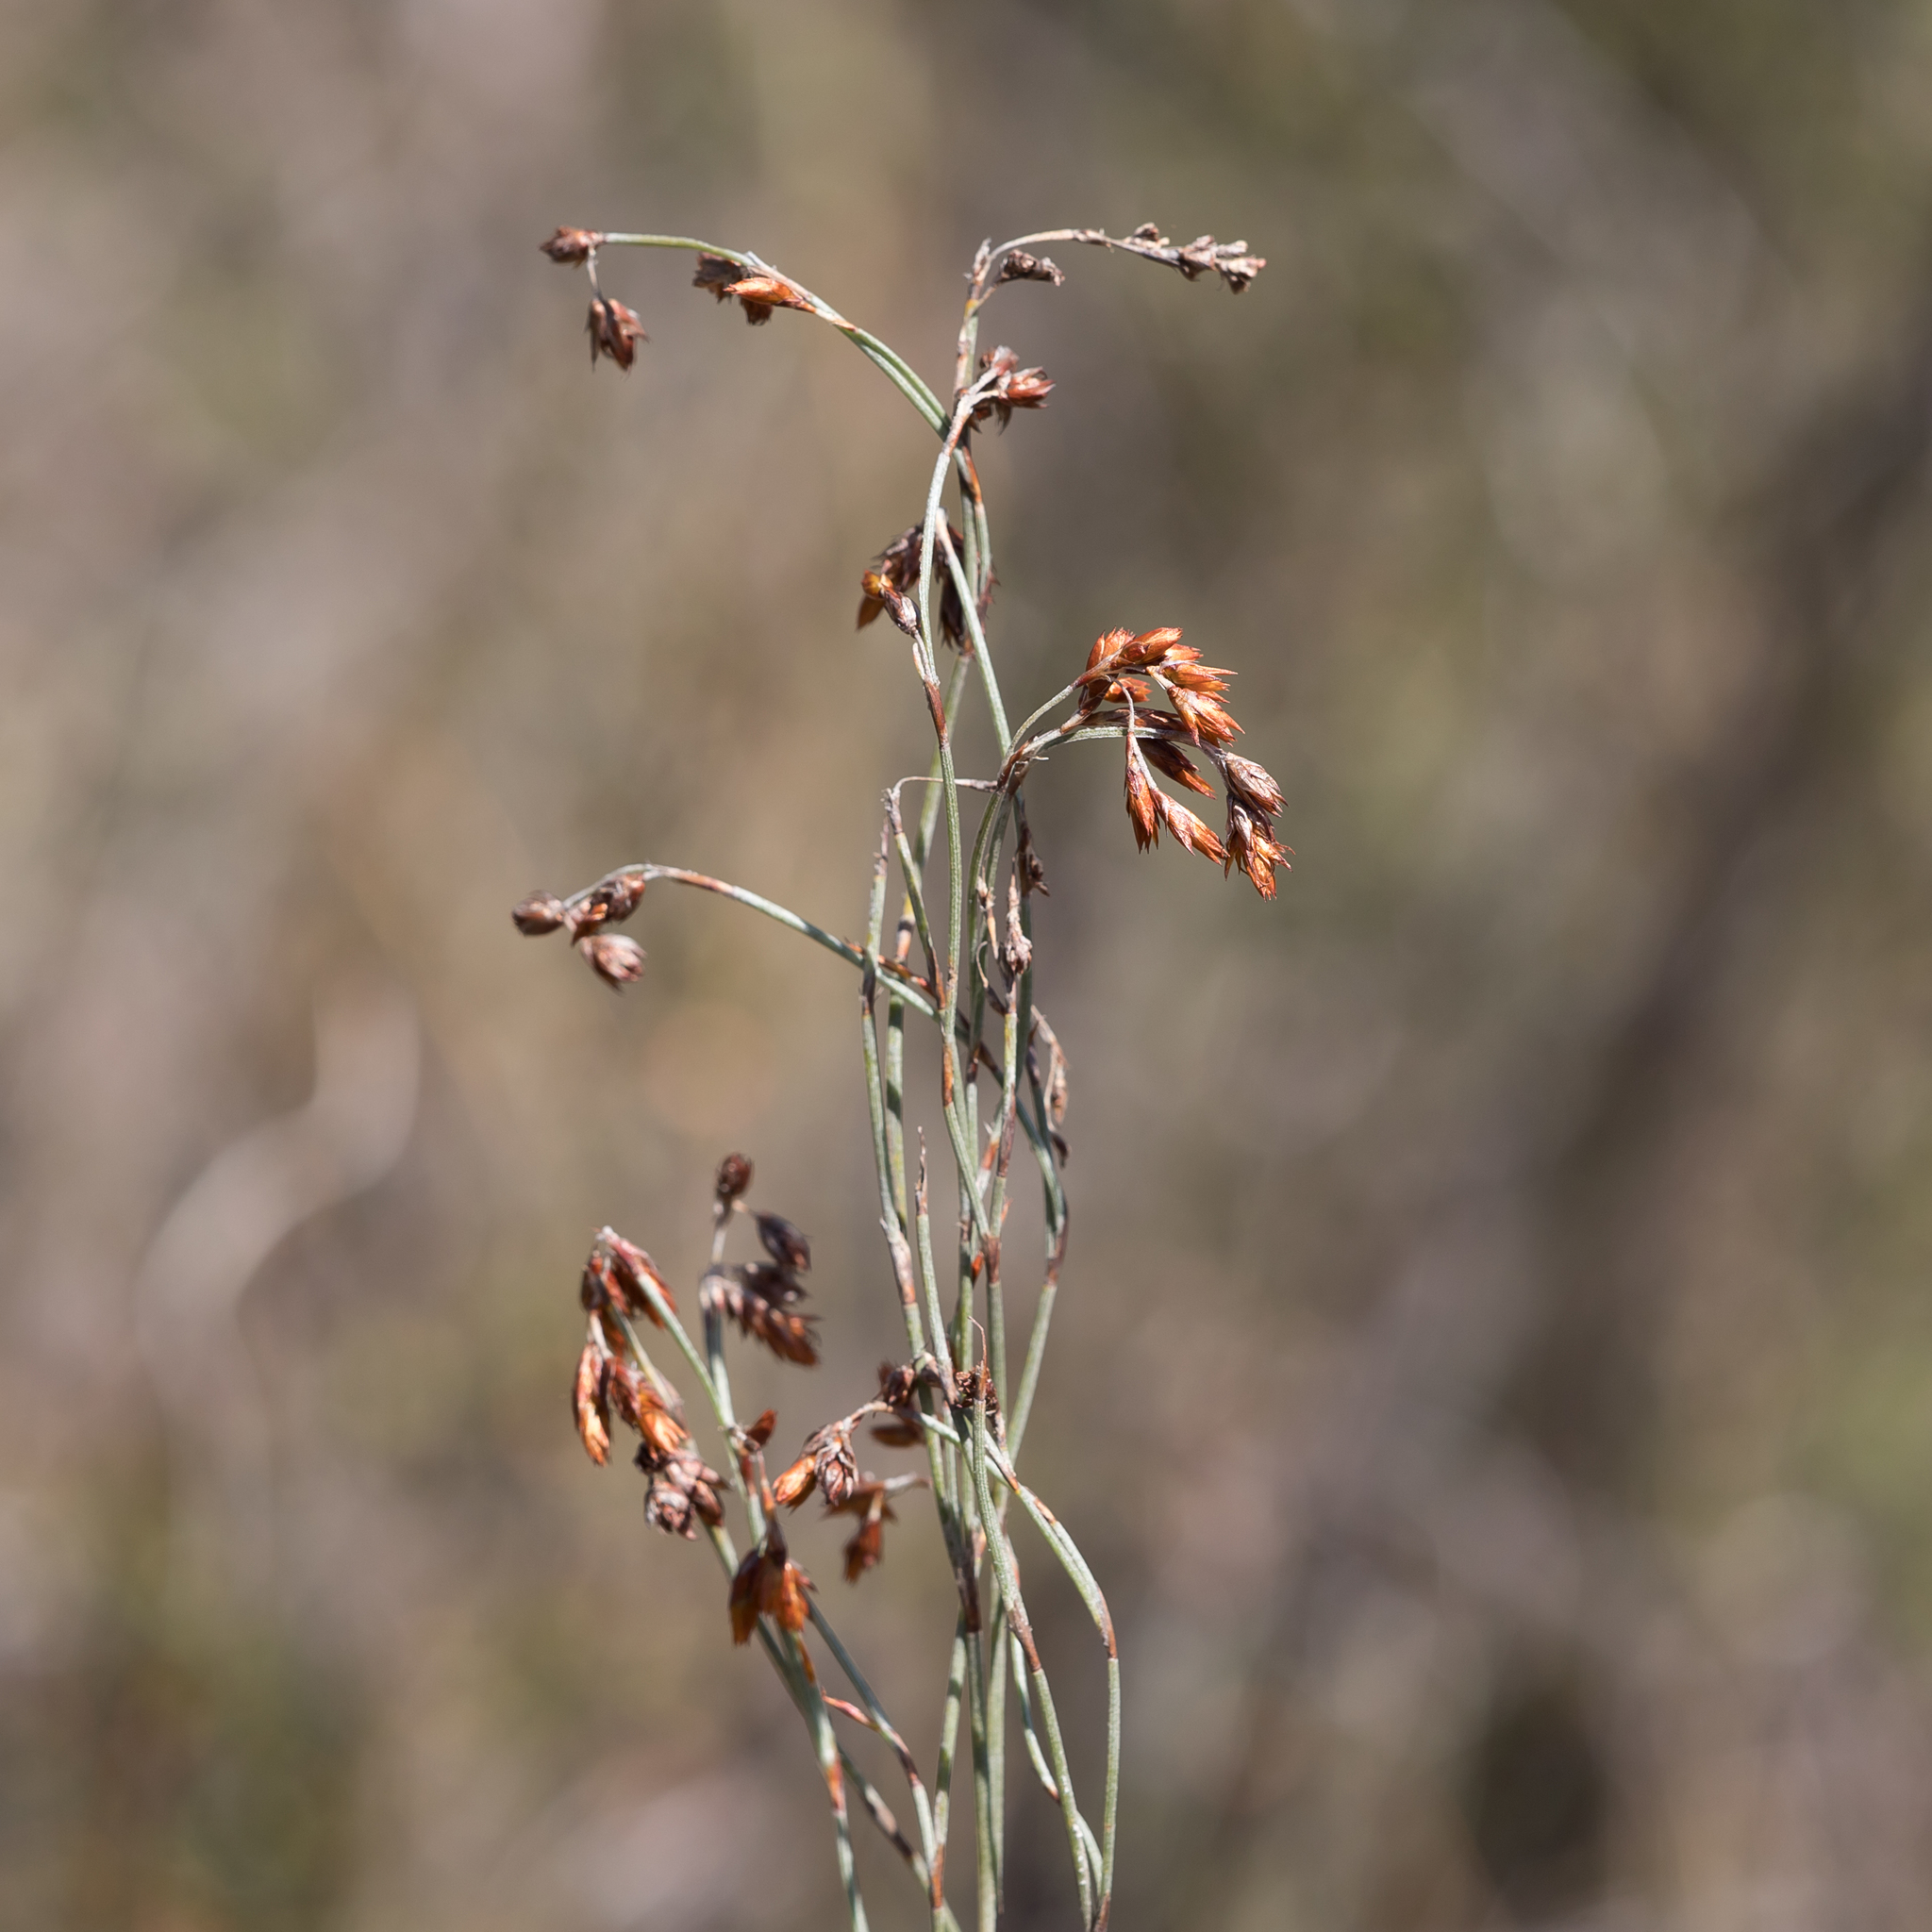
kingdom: Plantae
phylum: Tracheophyta
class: Liliopsida
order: Poales
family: Restionaceae
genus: Hypolaena
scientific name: Hypolaena fastigiata
